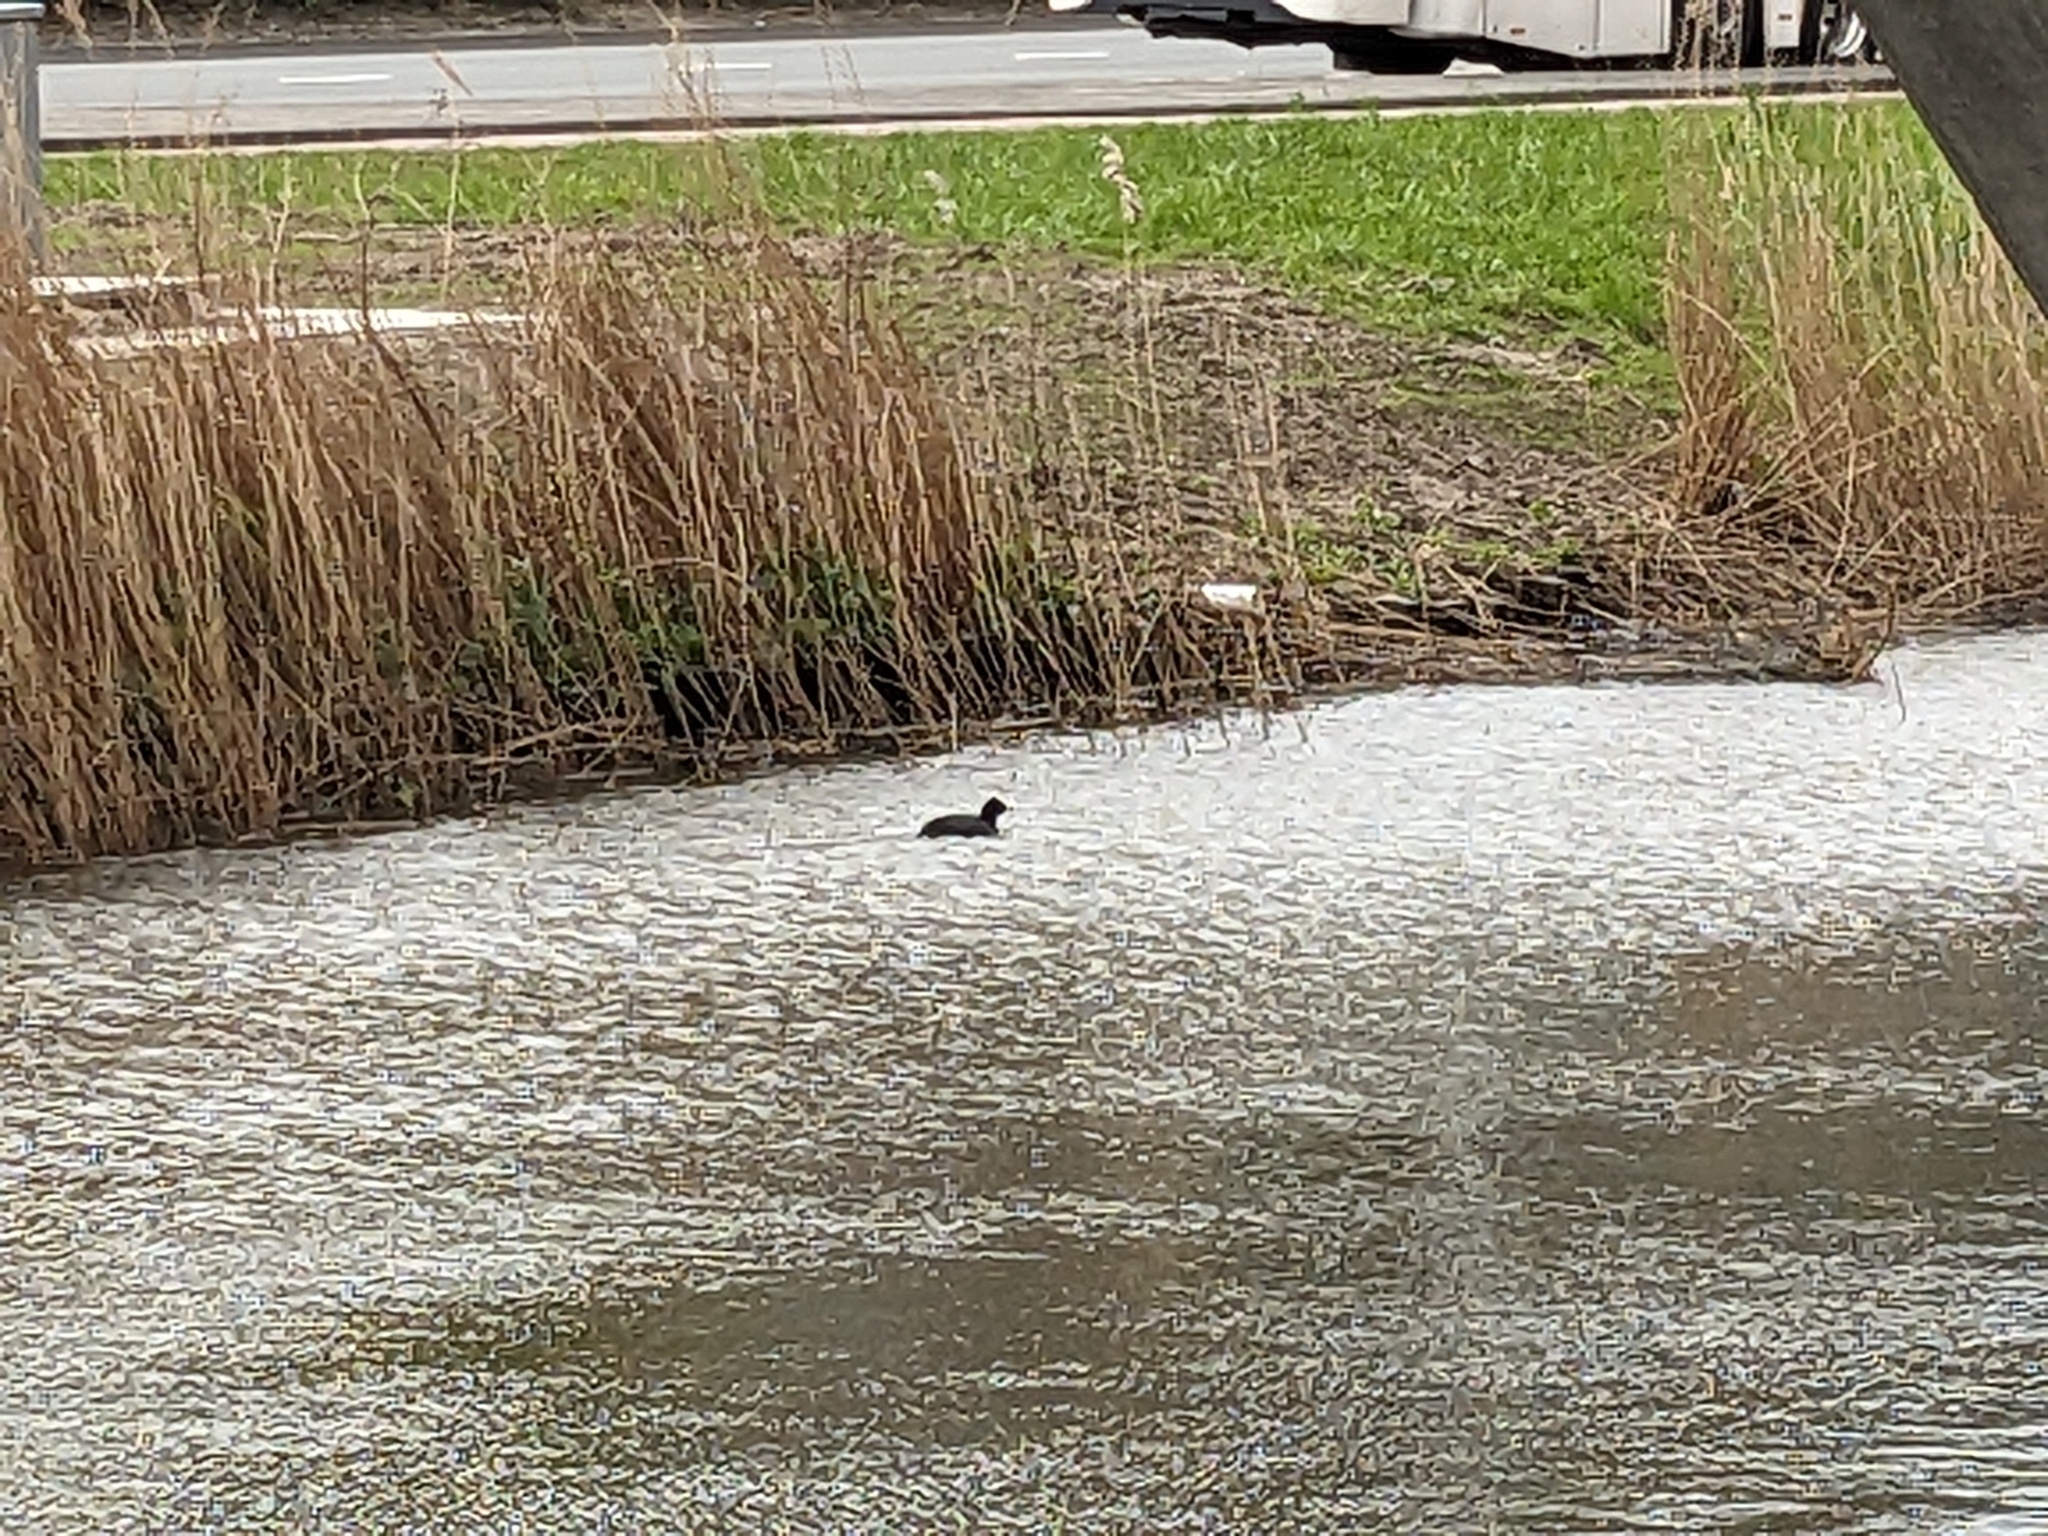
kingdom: Animalia
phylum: Chordata
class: Aves
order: Gruiformes
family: Rallidae
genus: Fulica
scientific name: Fulica atra
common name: Eurasian coot
